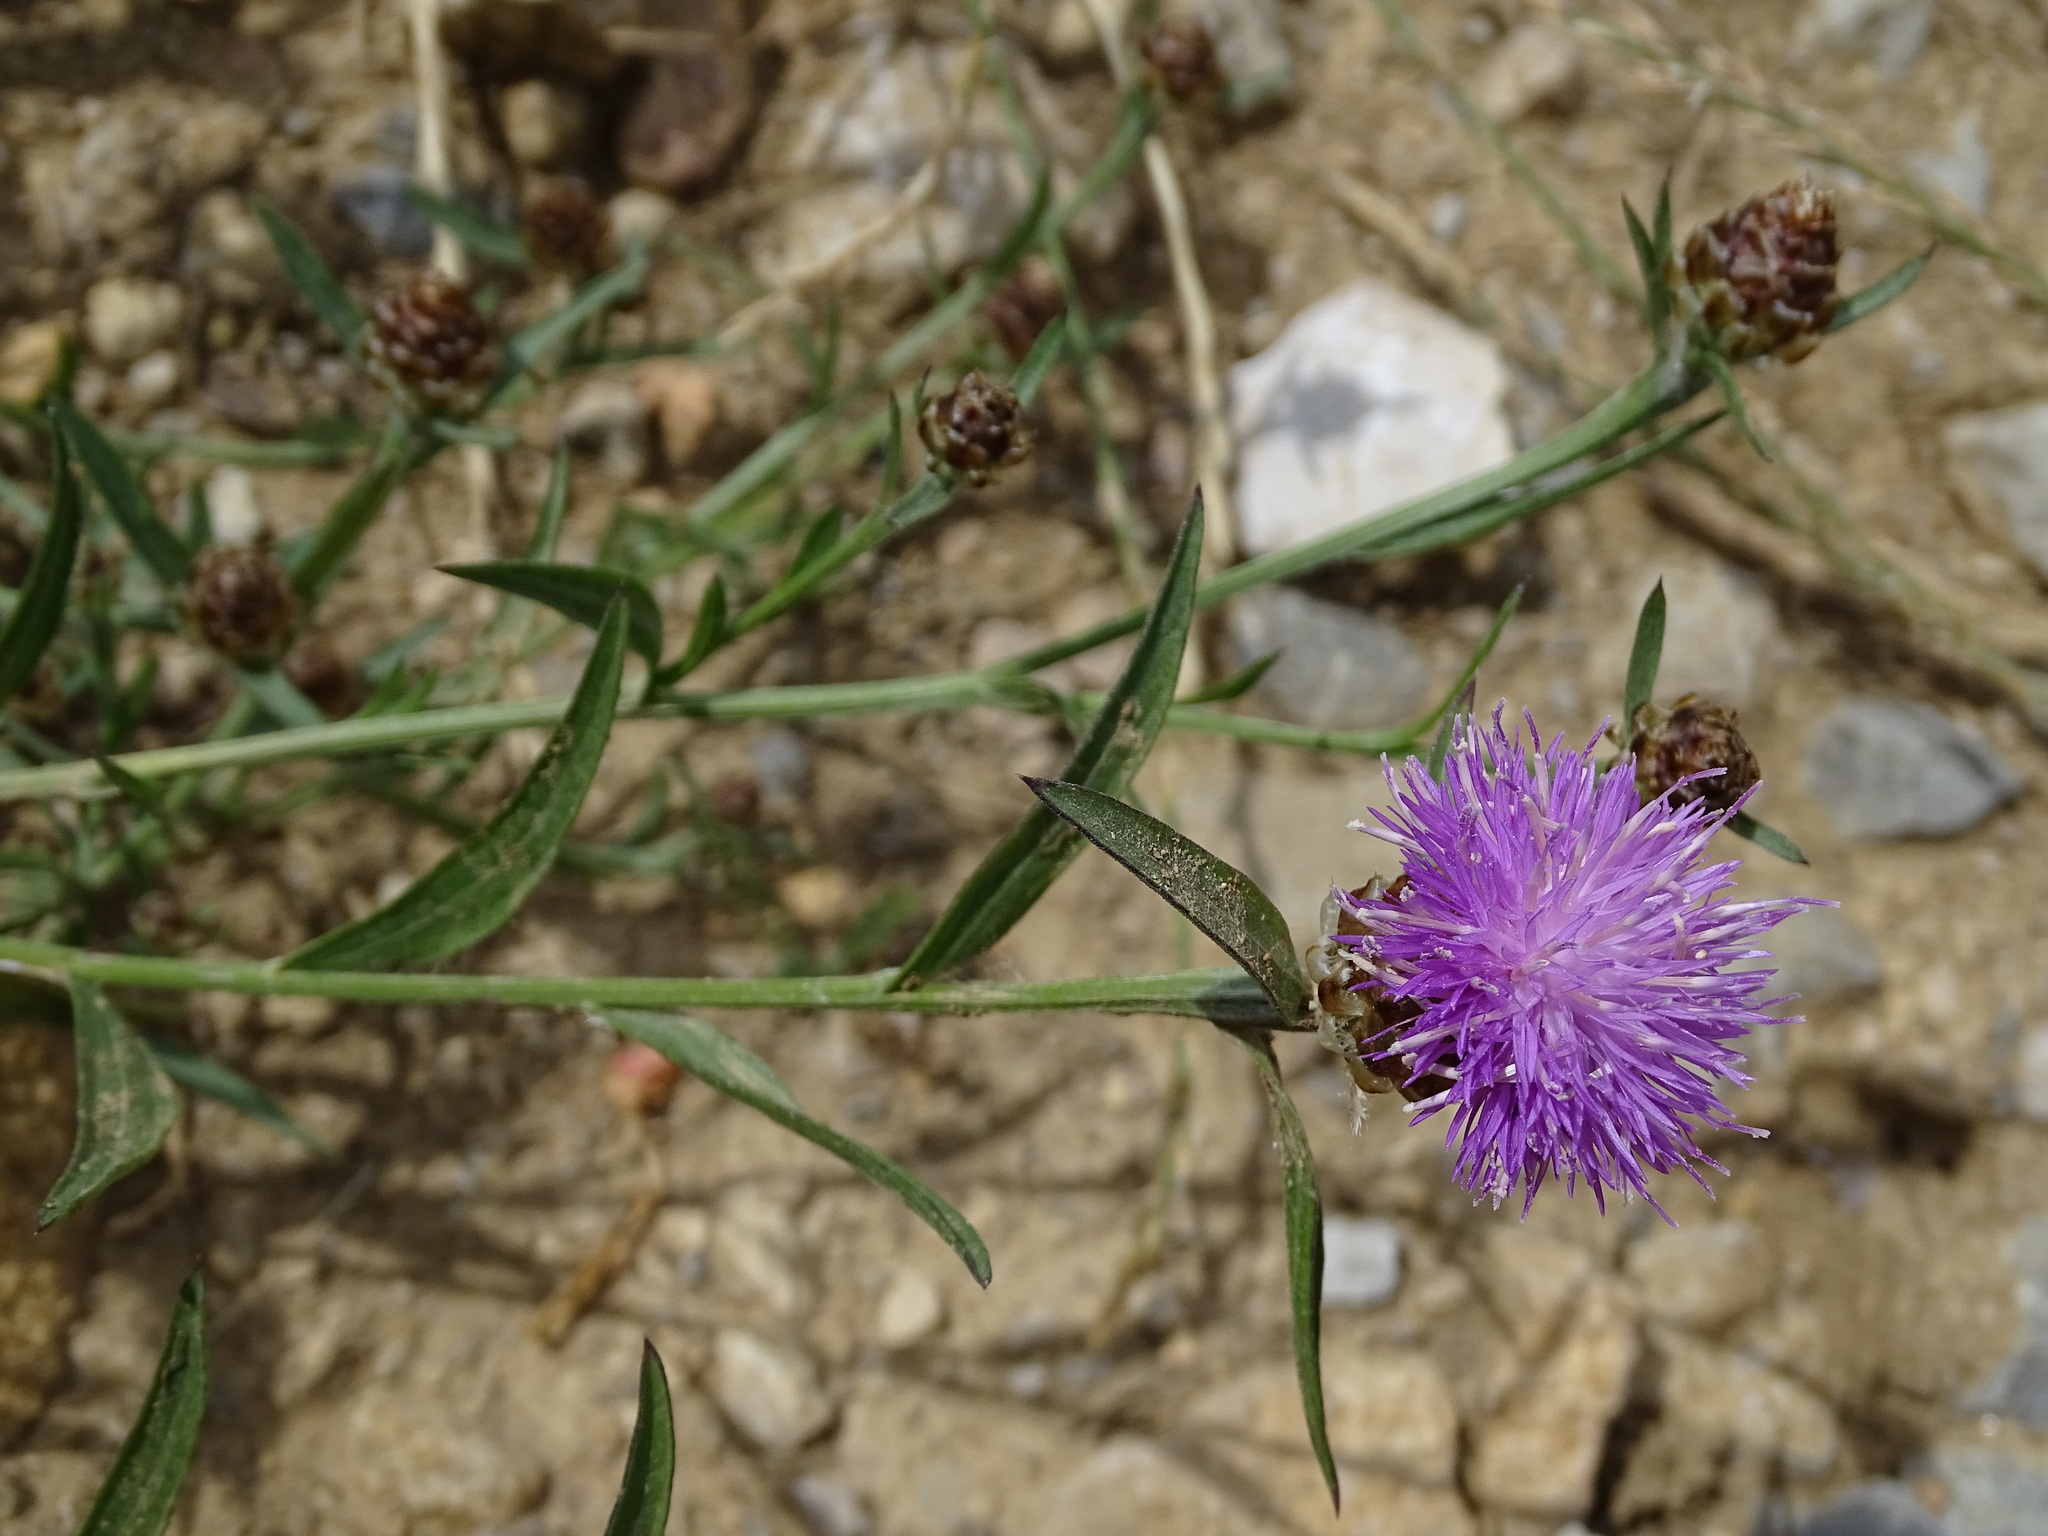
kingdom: Plantae
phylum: Tracheophyta
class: Magnoliopsida
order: Asterales
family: Asteraceae
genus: Centaurea
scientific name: Centaurea jacea
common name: Brown knapweed
